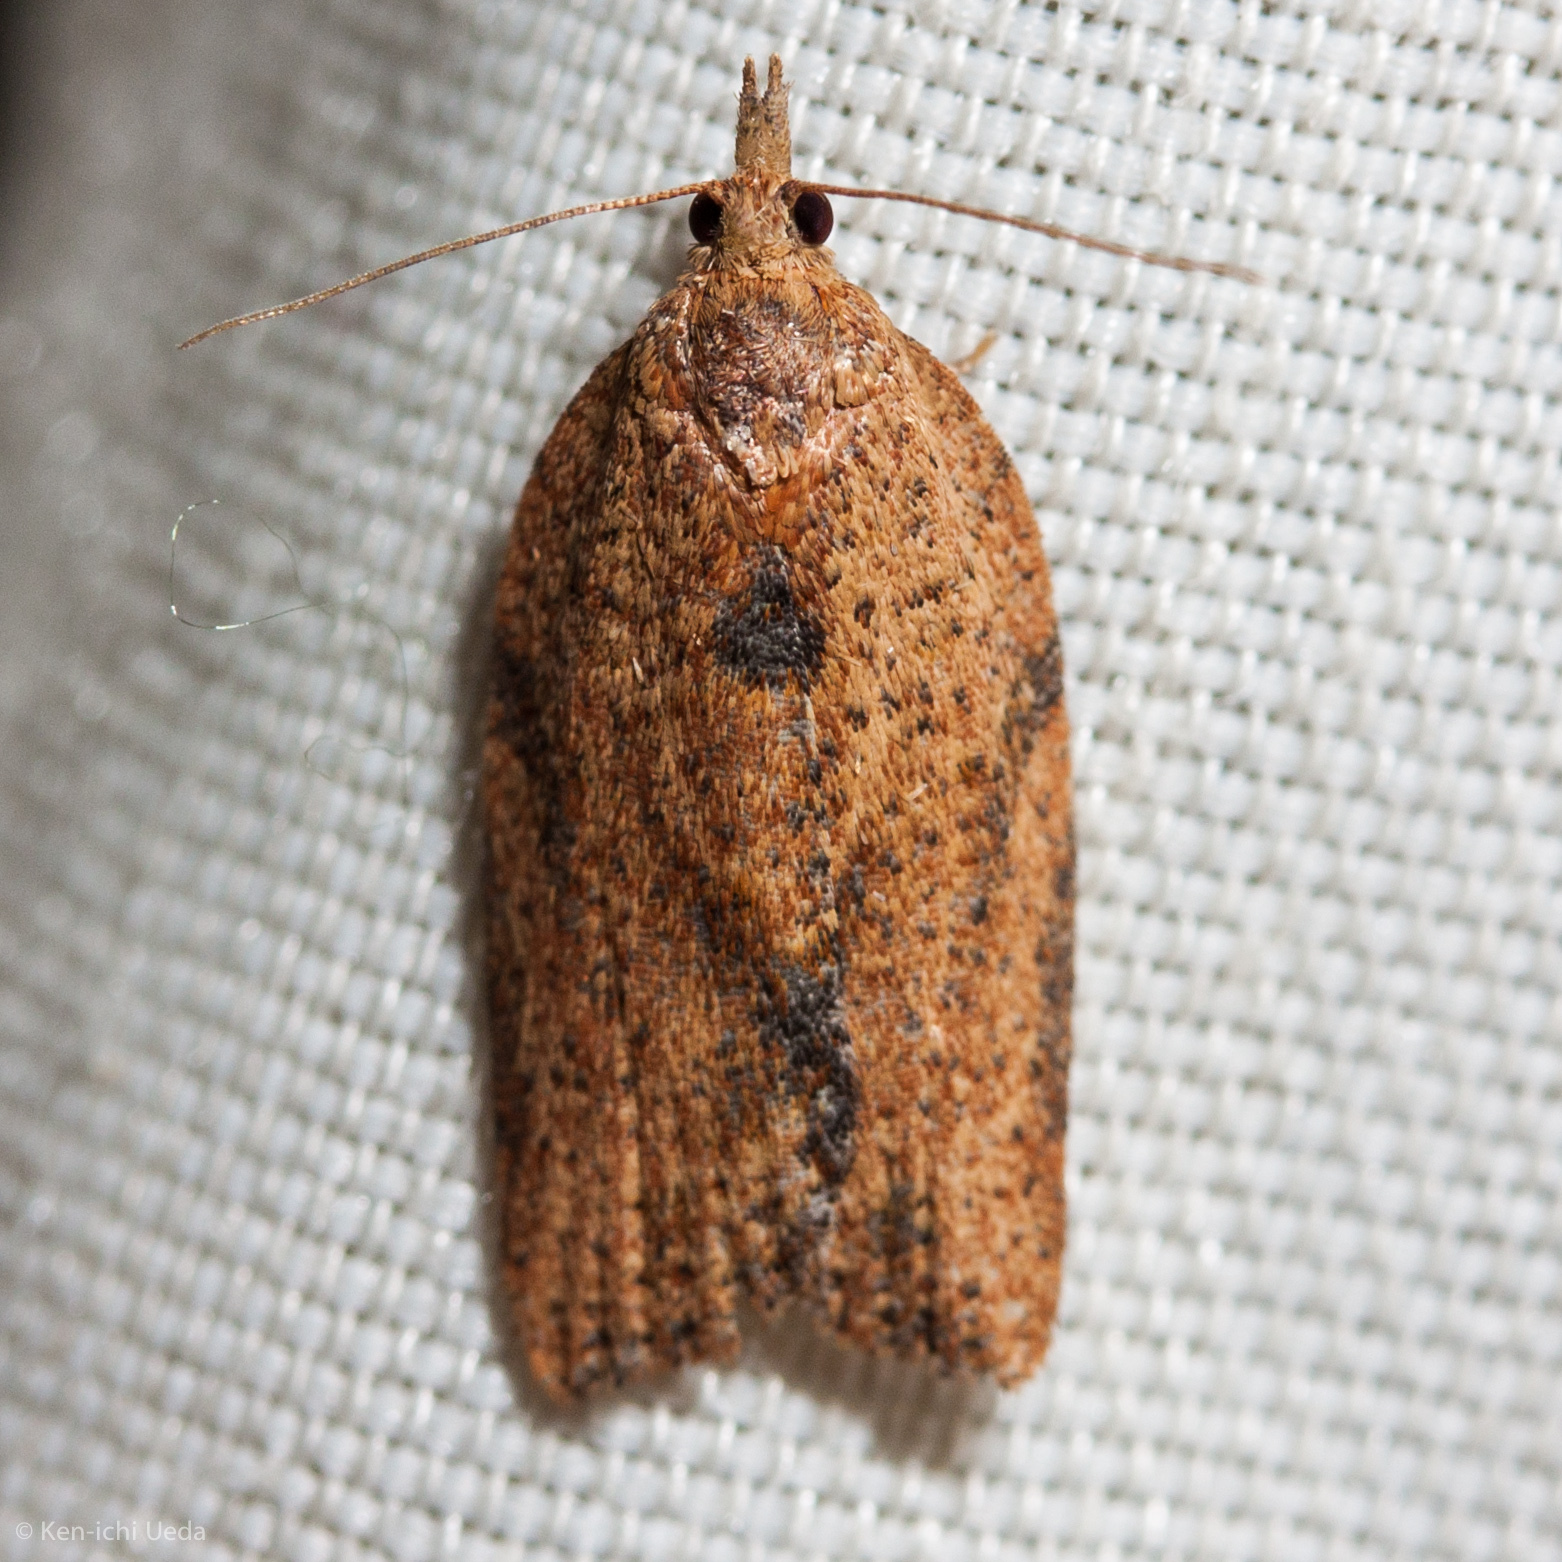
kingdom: Animalia
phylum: Arthropoda
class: Insecta
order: Lepidoptera
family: Tortricidae
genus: Epiphyas
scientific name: Epiphyas postvittana
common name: Light brown apple moth
